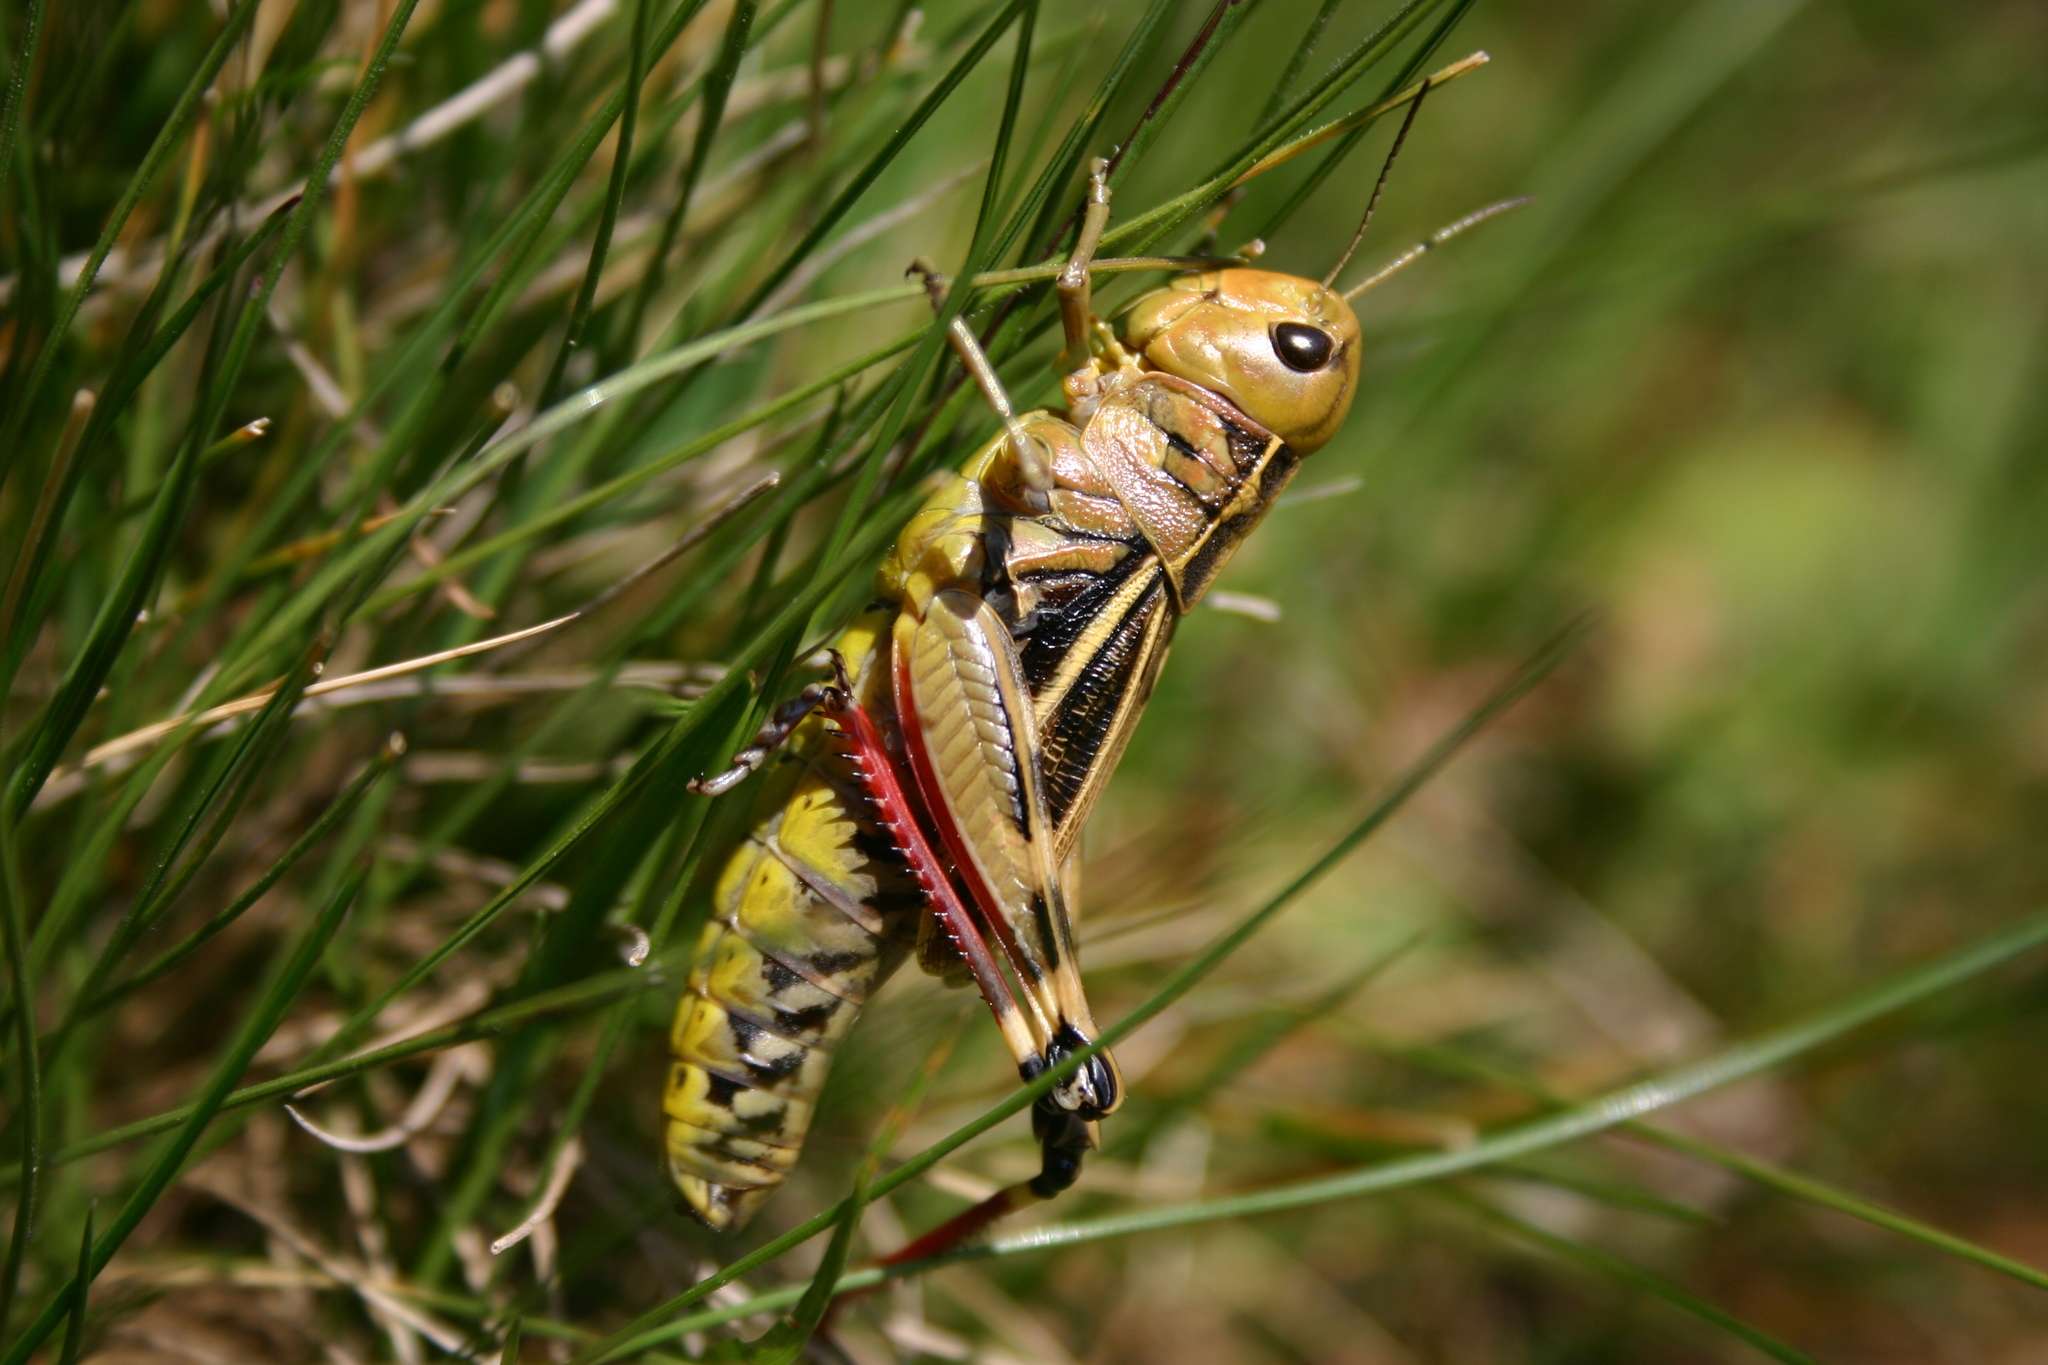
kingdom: Animalia
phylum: Arthropoda
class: Insecta
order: Orthoptera
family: Acrididae
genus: Arcyptera
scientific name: Arcyptera fusca
